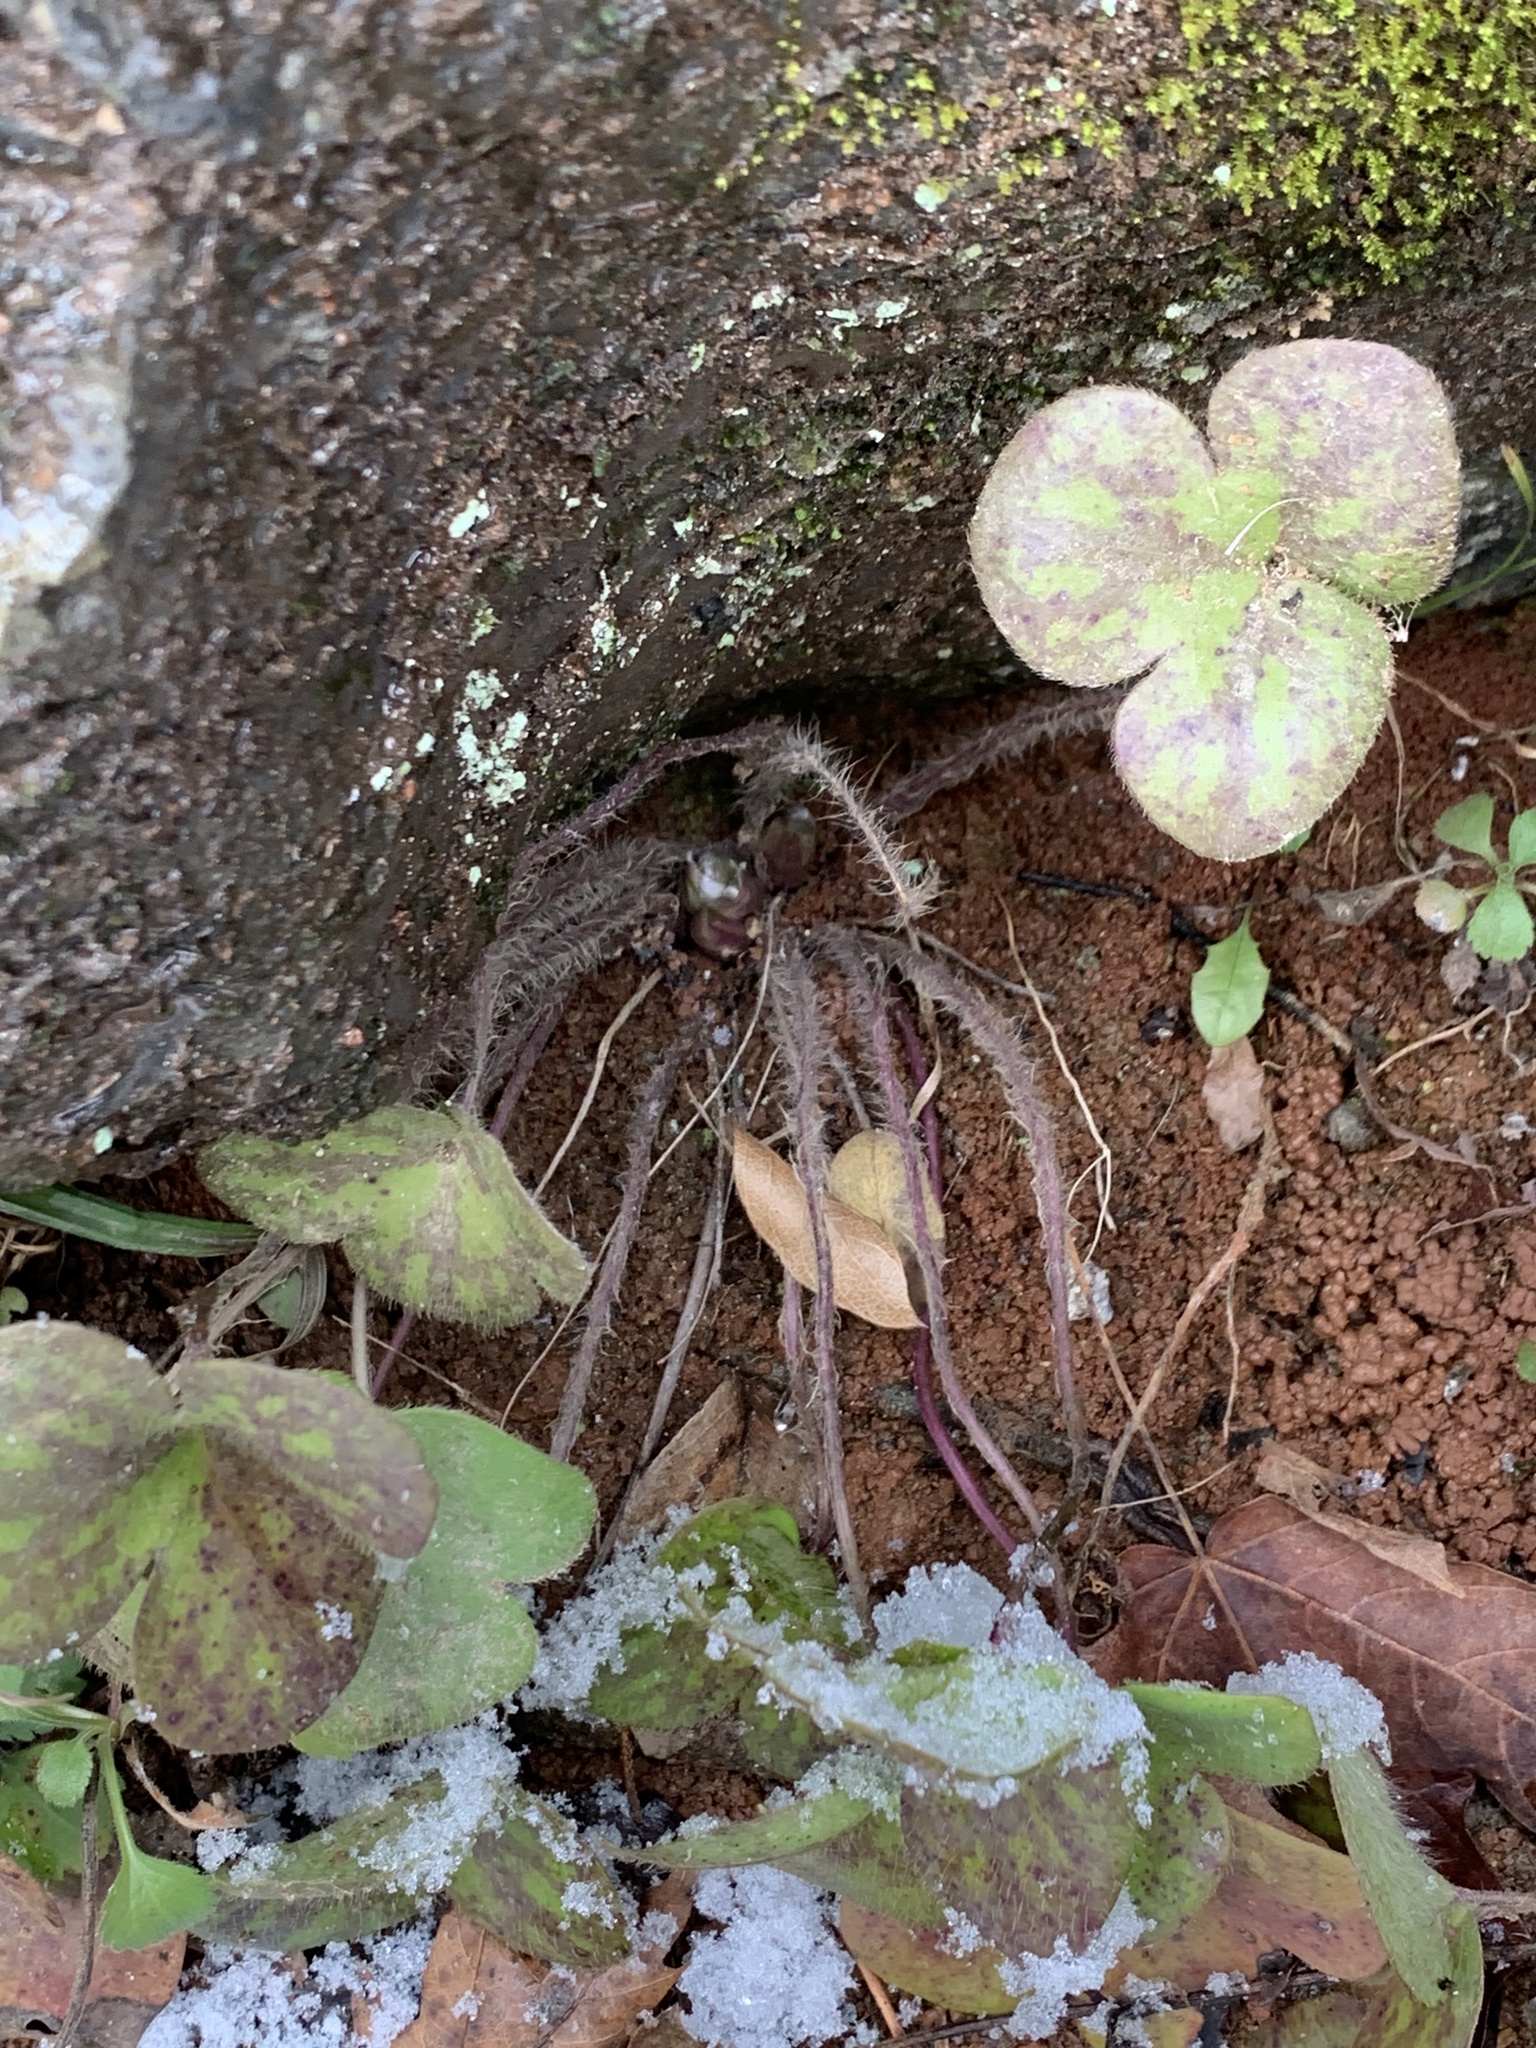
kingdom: Plantae
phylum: Tracheophyta
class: Magnoliopsida
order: Ranunculales
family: Ranunculaceae
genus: Hepatica
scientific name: Hepatica americana
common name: American hepatica
